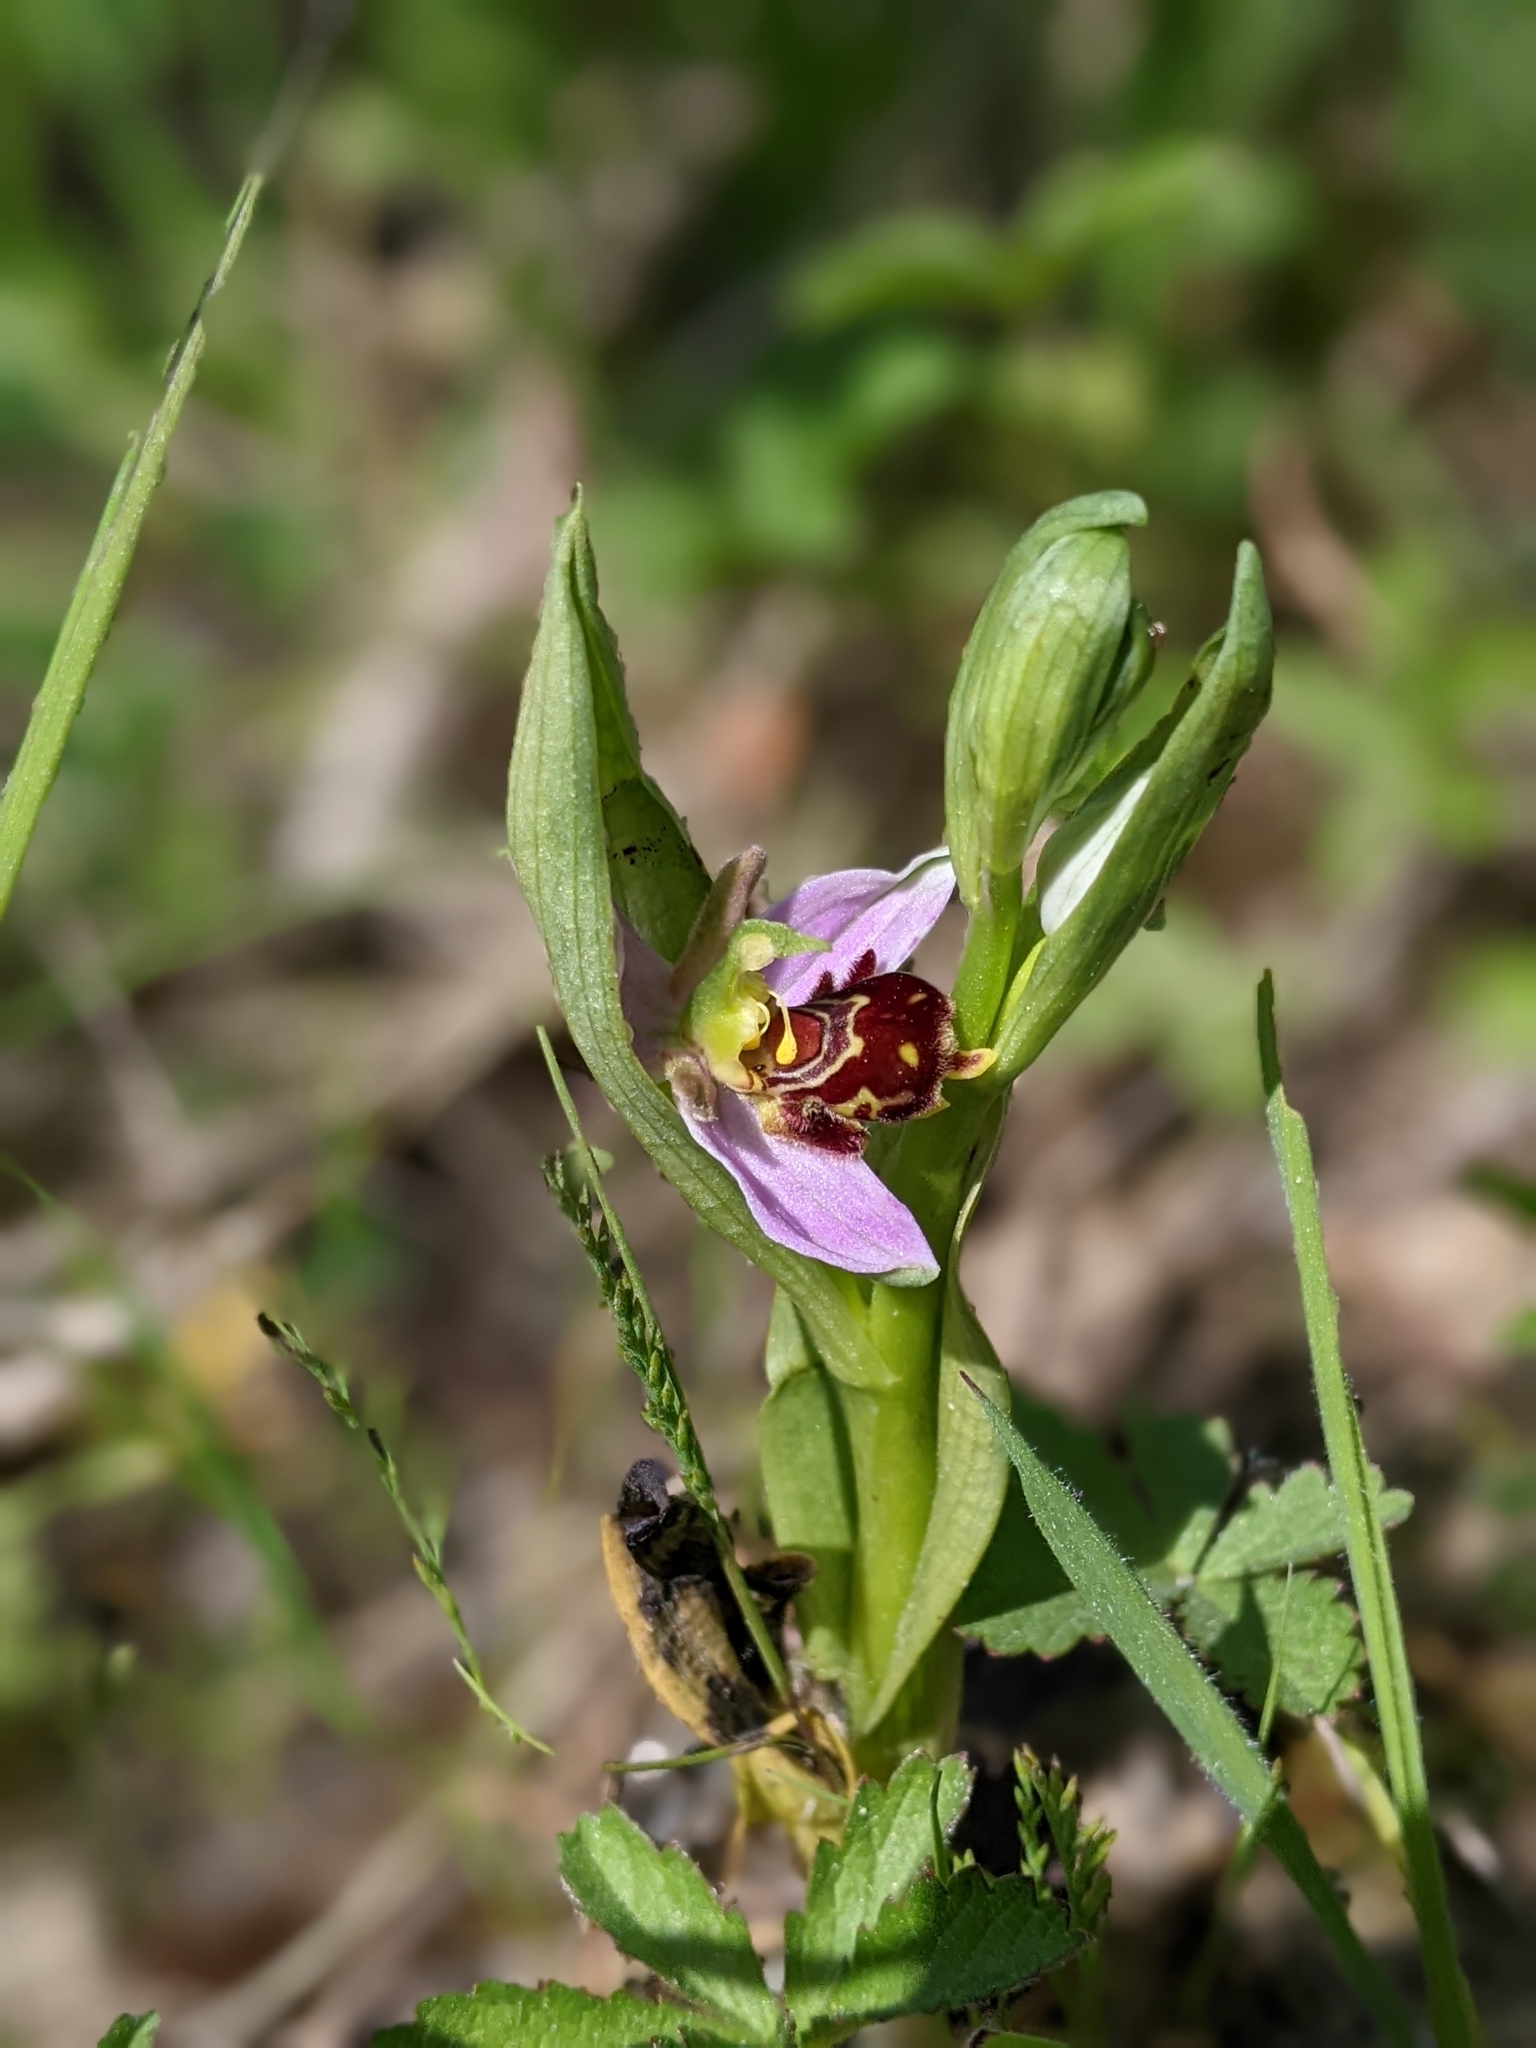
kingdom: Plantae
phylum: Tracheophyta
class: Liliopsida
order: Asparagales
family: Orchidaceae
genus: Ophrys
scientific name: Ophrys apifera
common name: Bee orchid
